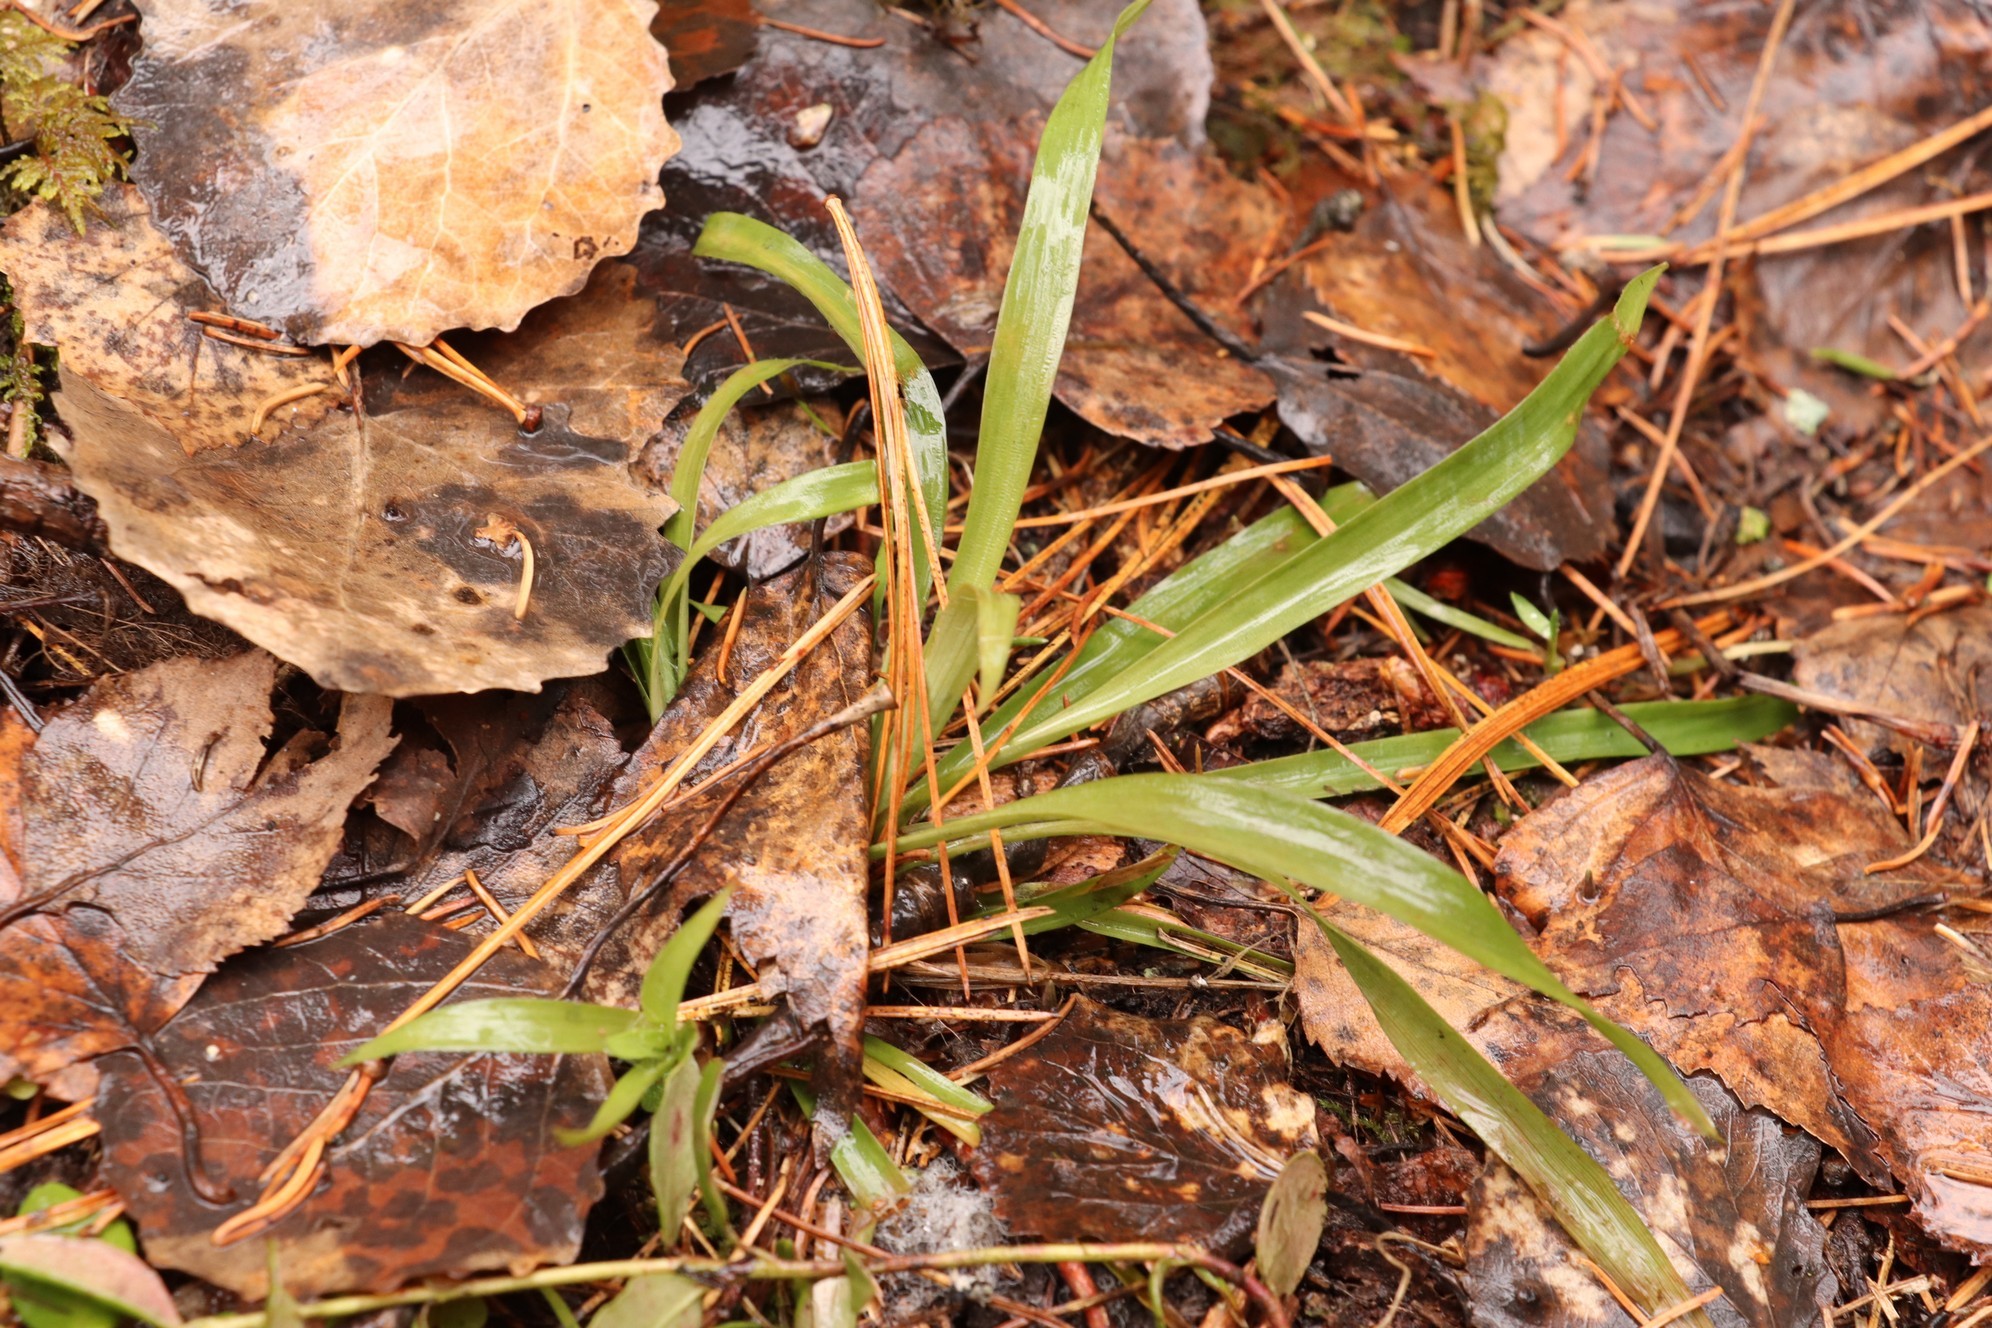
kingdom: Plantae
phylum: Tracheophyta
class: Liliopsida
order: Poales
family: Juncaceae
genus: Luzula
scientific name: Luzula pilosa
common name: Hairy wood-rush
